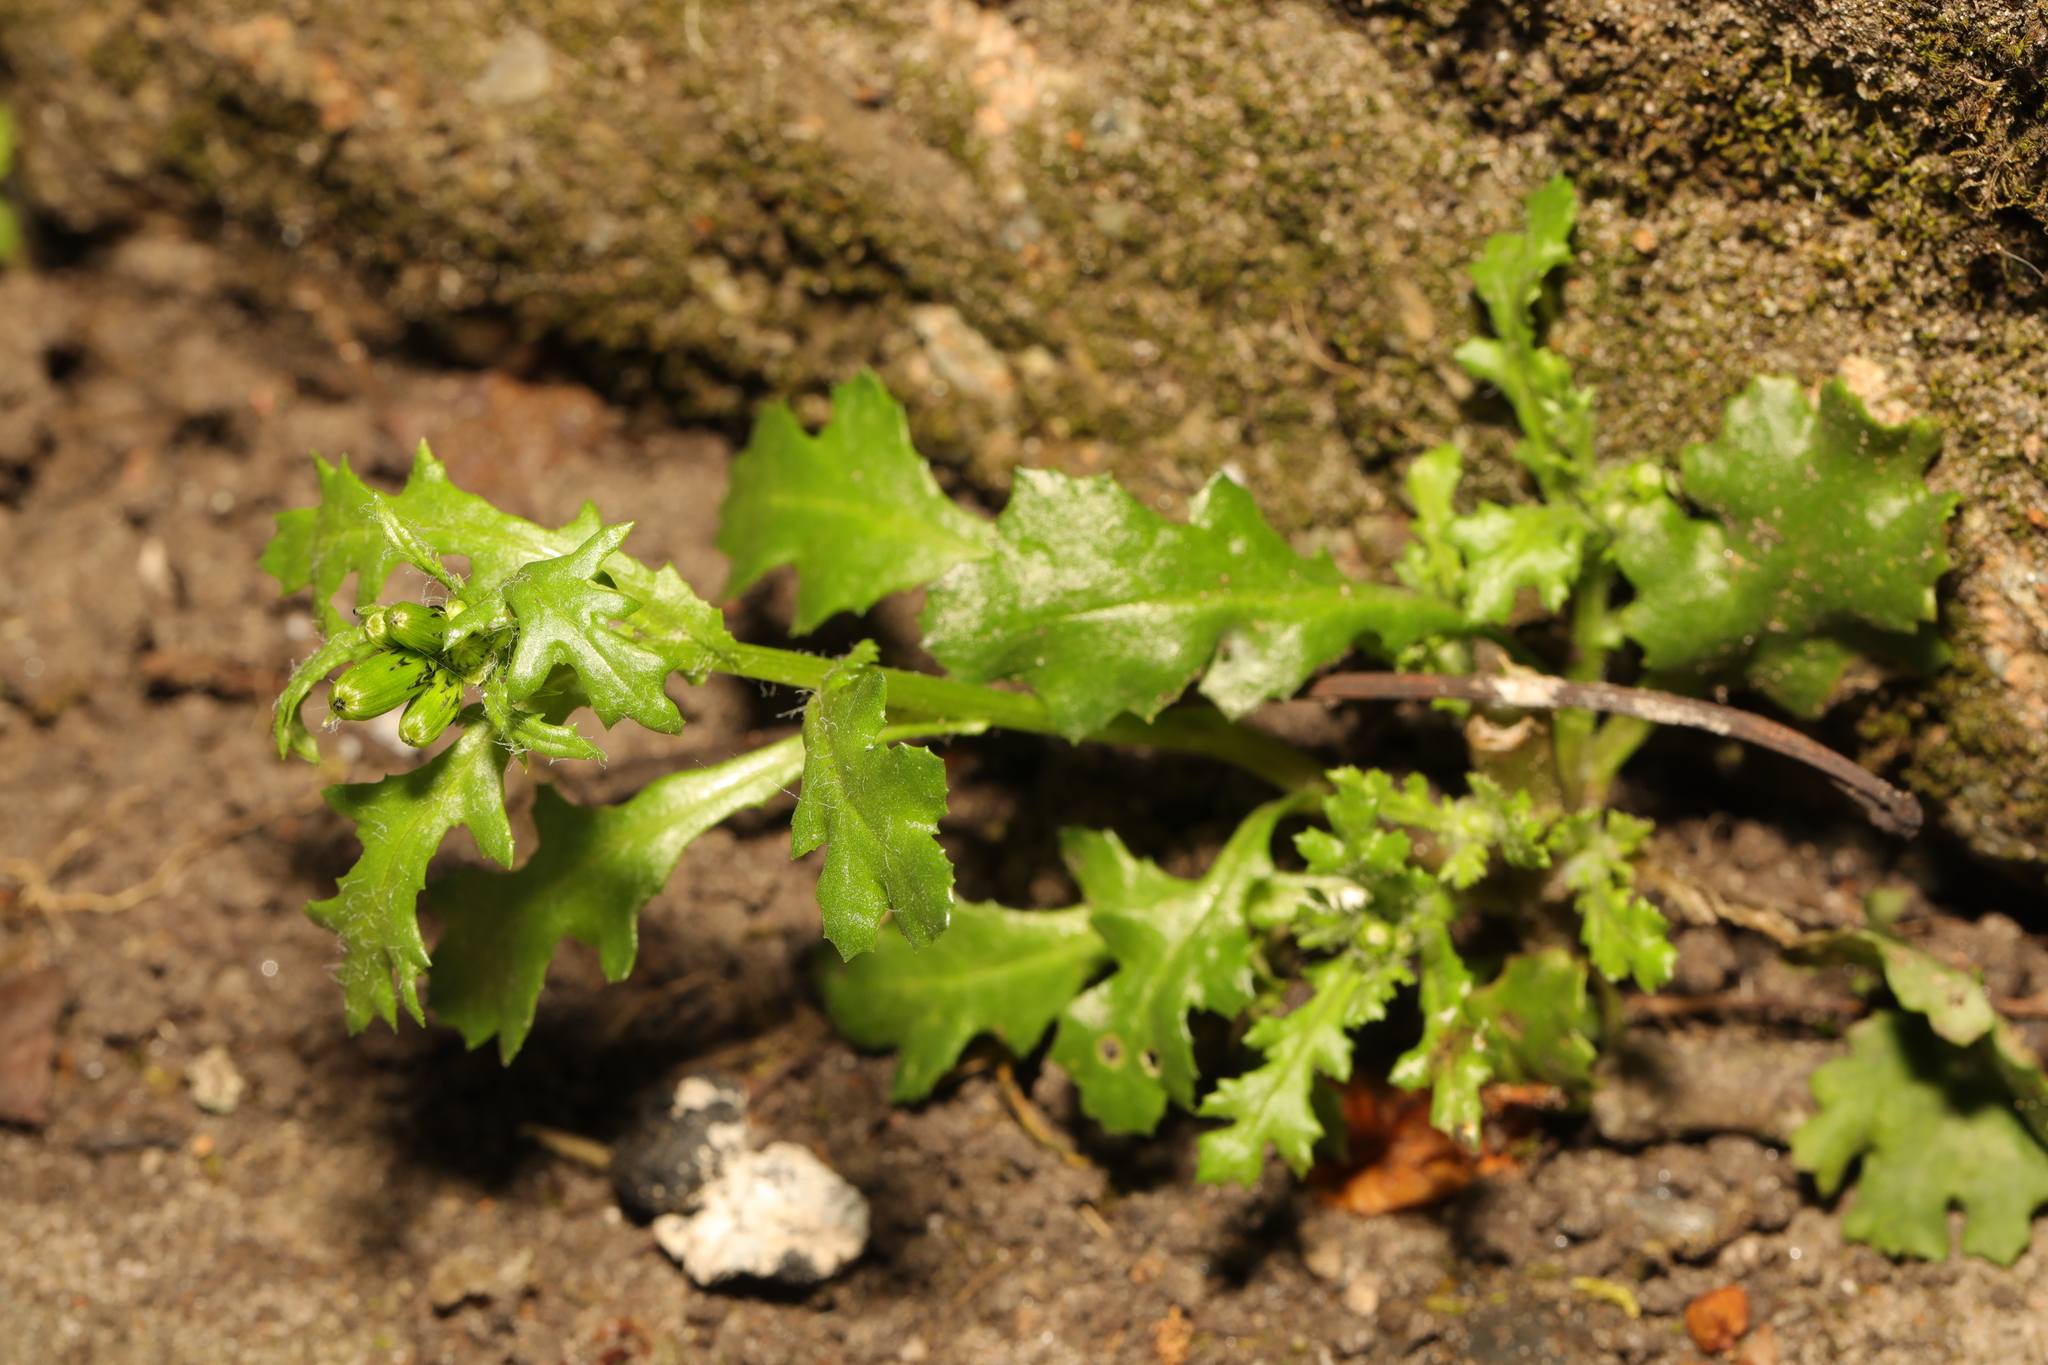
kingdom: Plantae
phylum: Tracheophyta
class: Magnoliopsida
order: Asterales
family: Asteraceae
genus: Senecio
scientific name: Senecio vulgaris
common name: Old-man-in-the-spring
